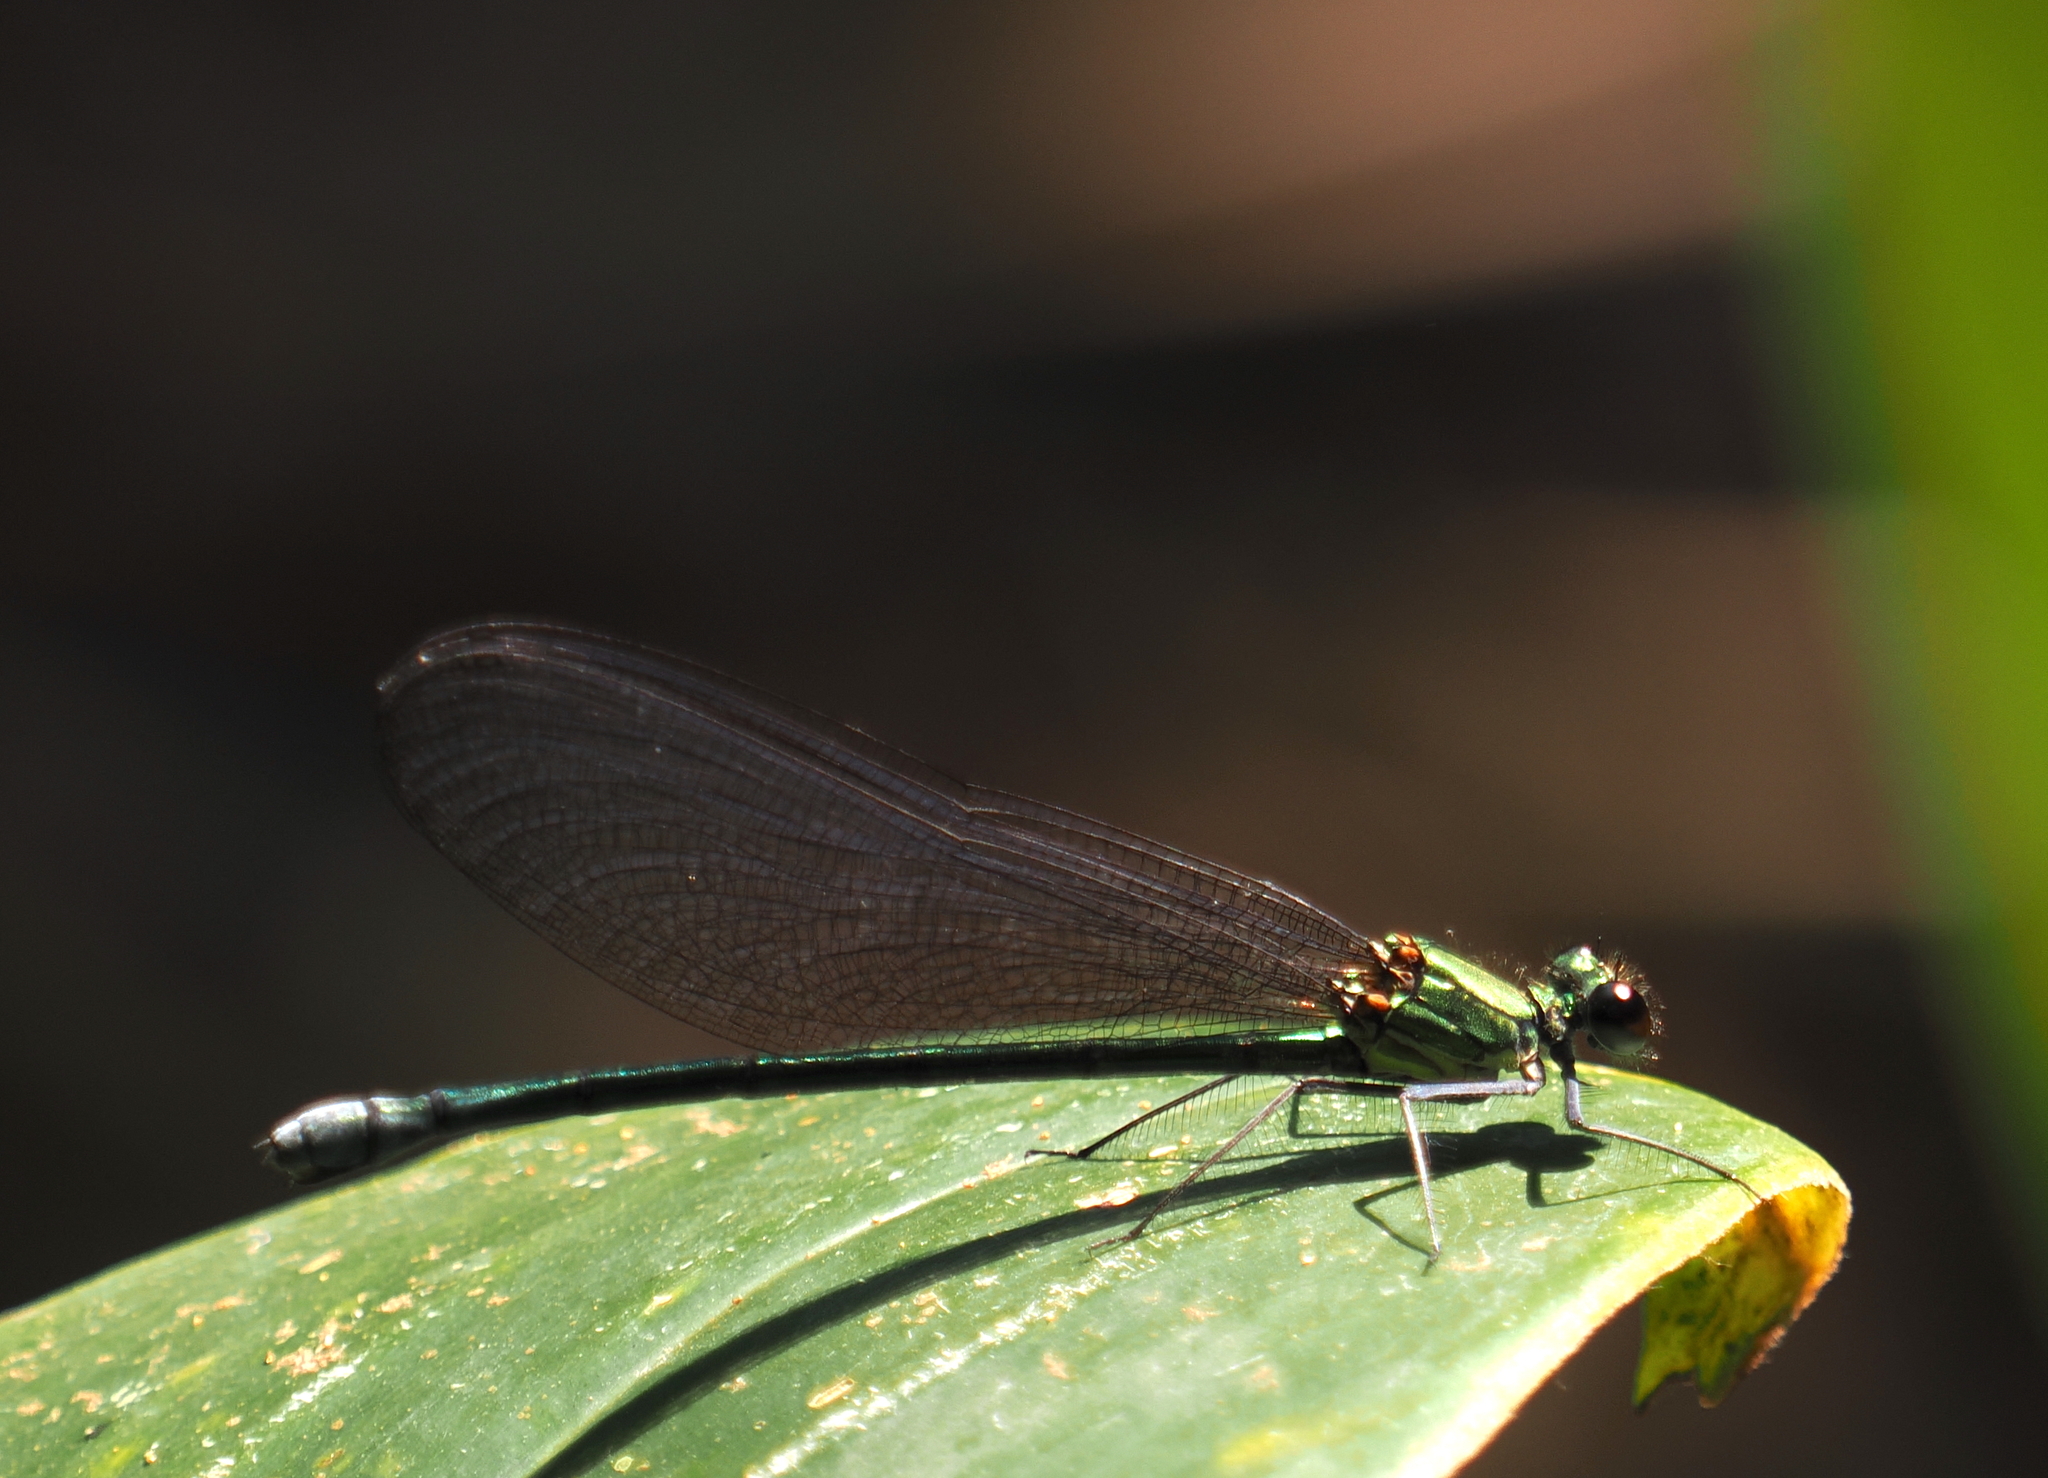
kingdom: Animalia
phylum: Arthropoda
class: Insecta
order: Odonata
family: Calopterygidae
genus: Mnais
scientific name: Mnais andersoni
